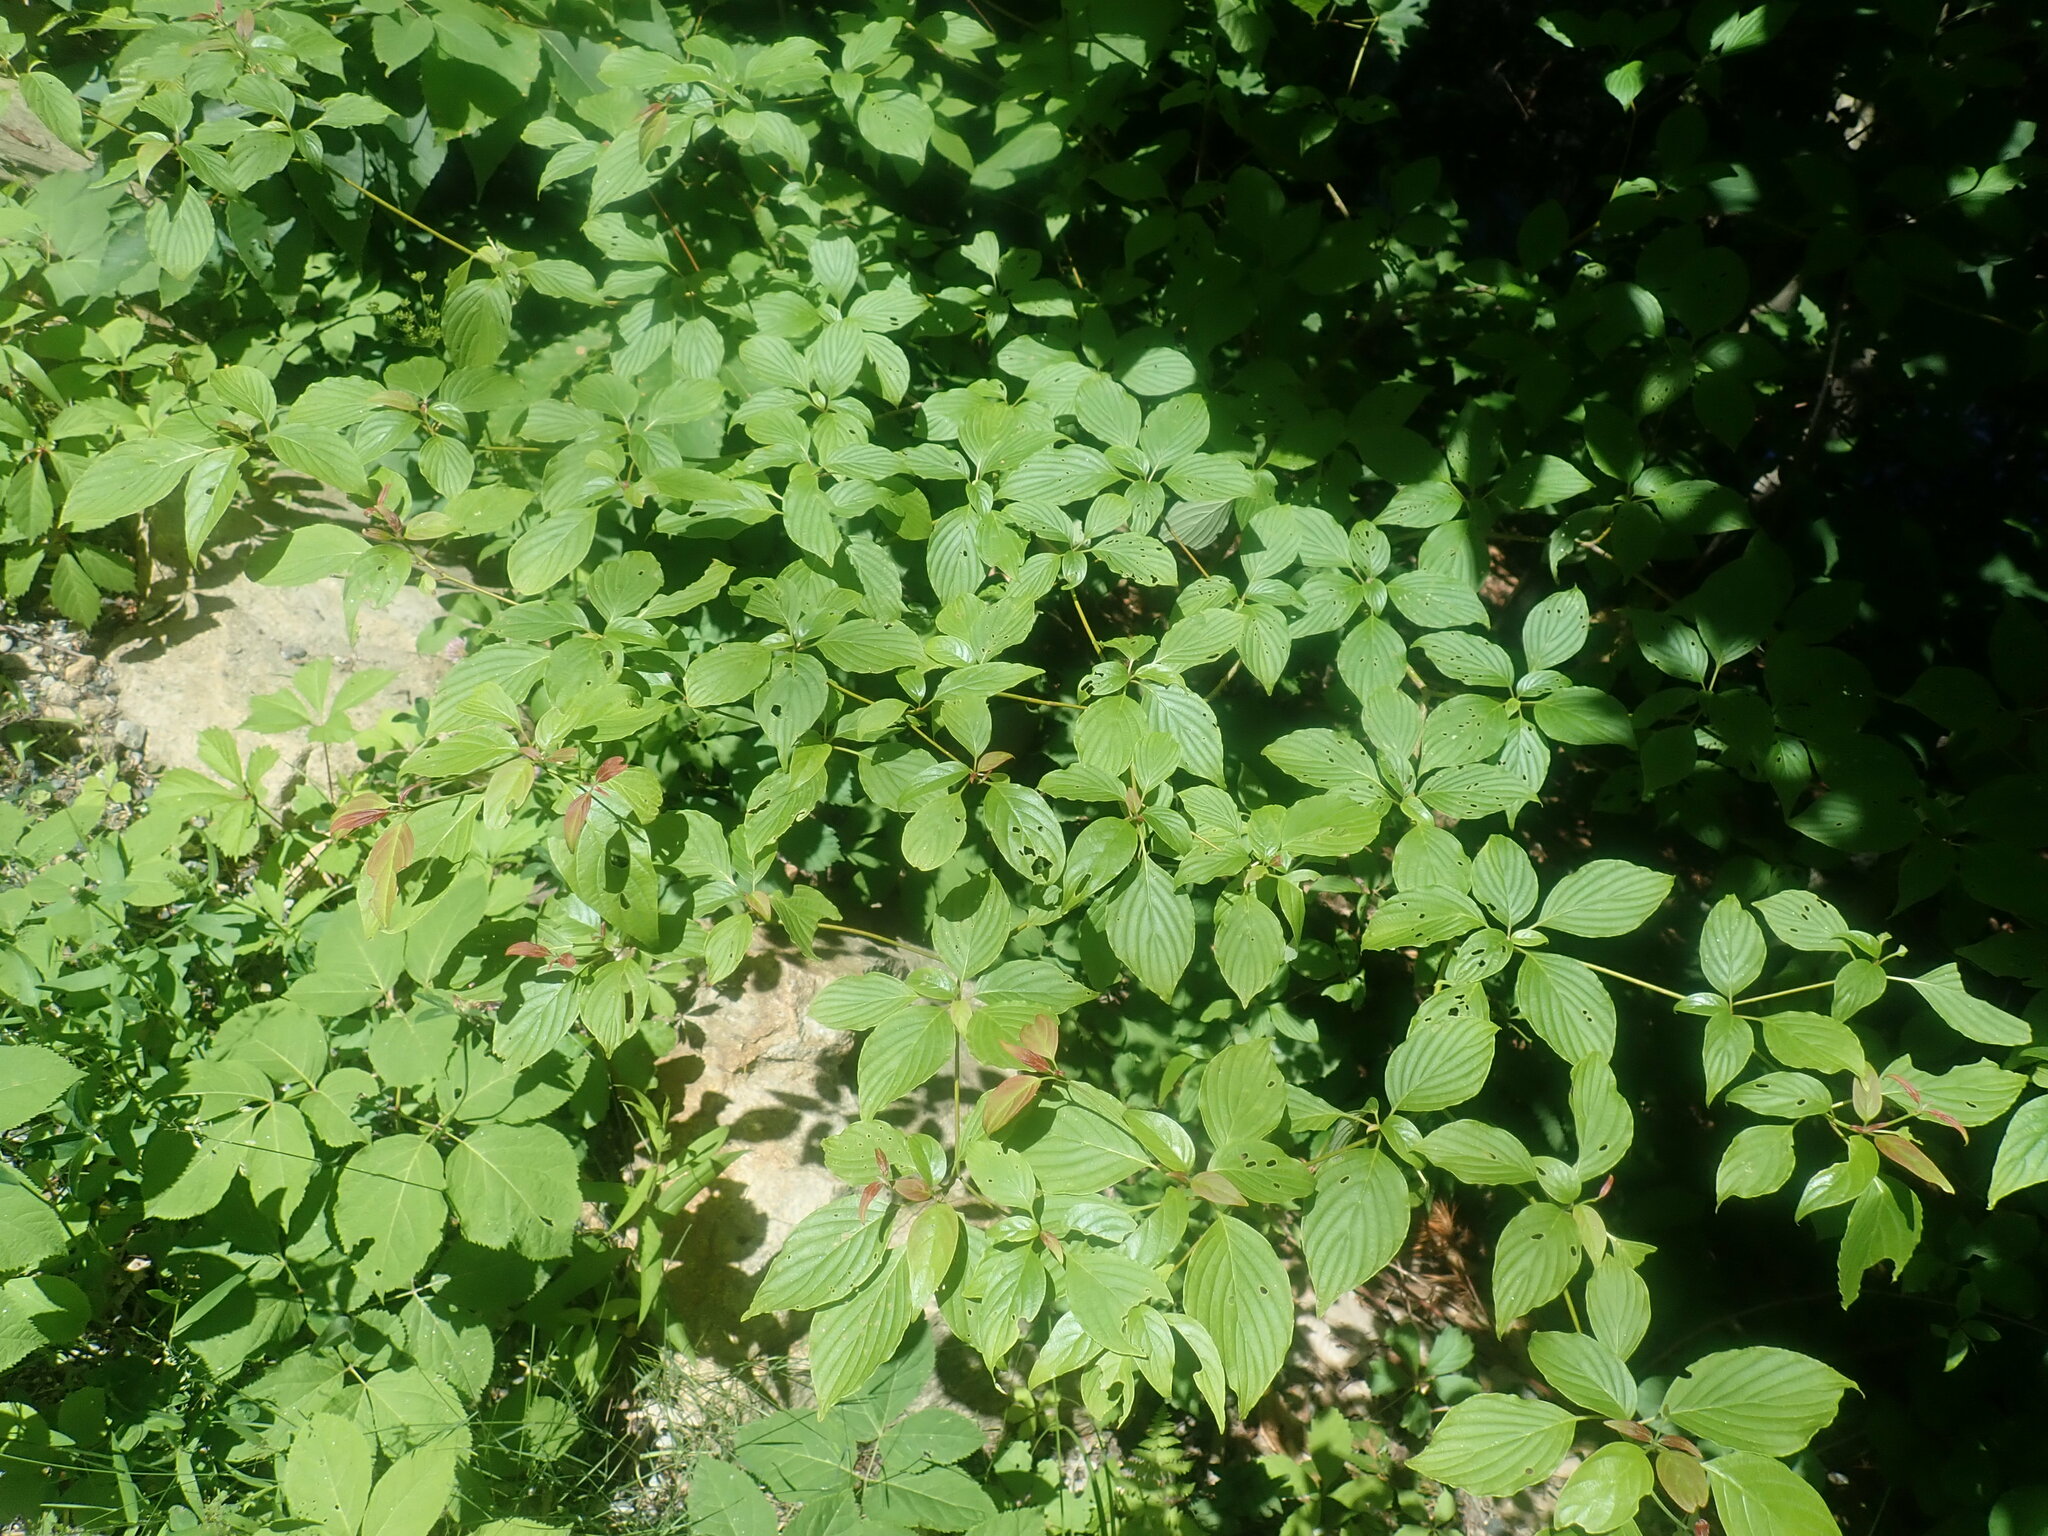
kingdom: Plantae
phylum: Tracheophyta
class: Magnoliopsida
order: Cornales
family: Cornaceae
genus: Cornus
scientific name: Cornus alternifolia
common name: Pagoda dogwood
